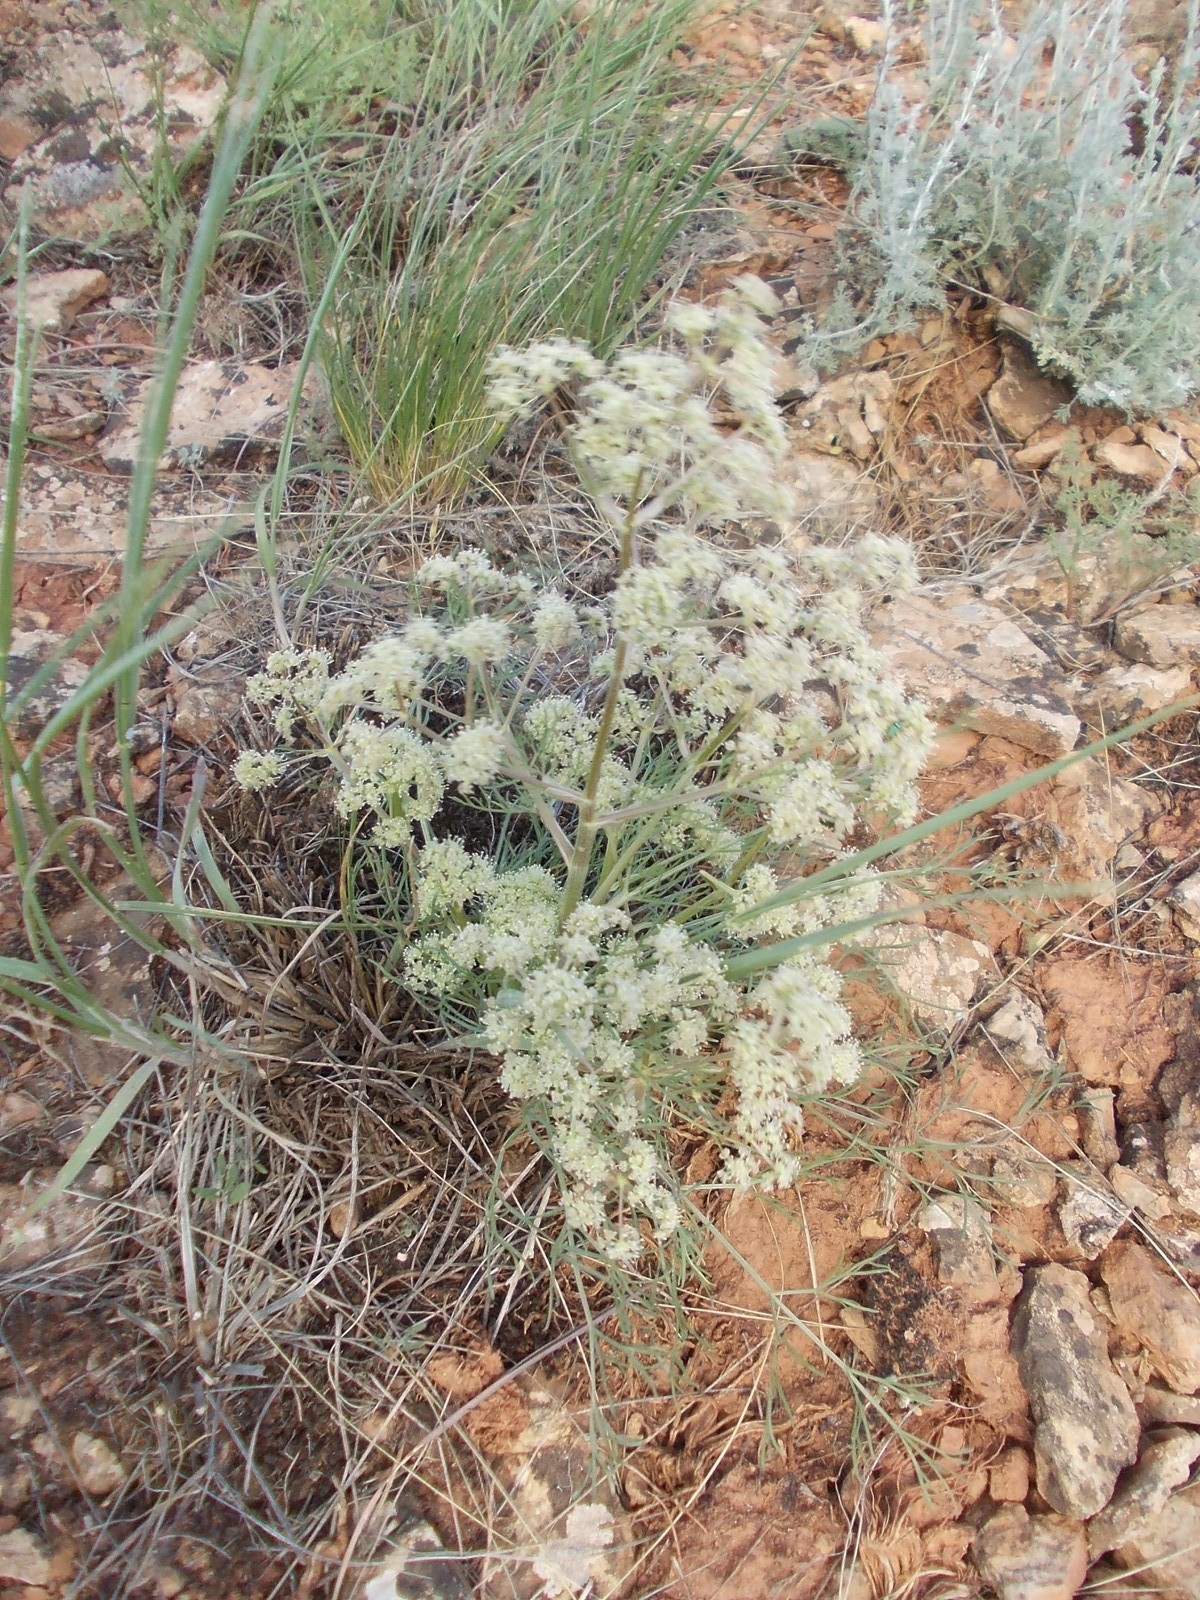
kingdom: Plantae
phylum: Tracheophyta
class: Magnoliopsida
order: Apiales
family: Apiaceae
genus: Trinia
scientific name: Trinia hispida
